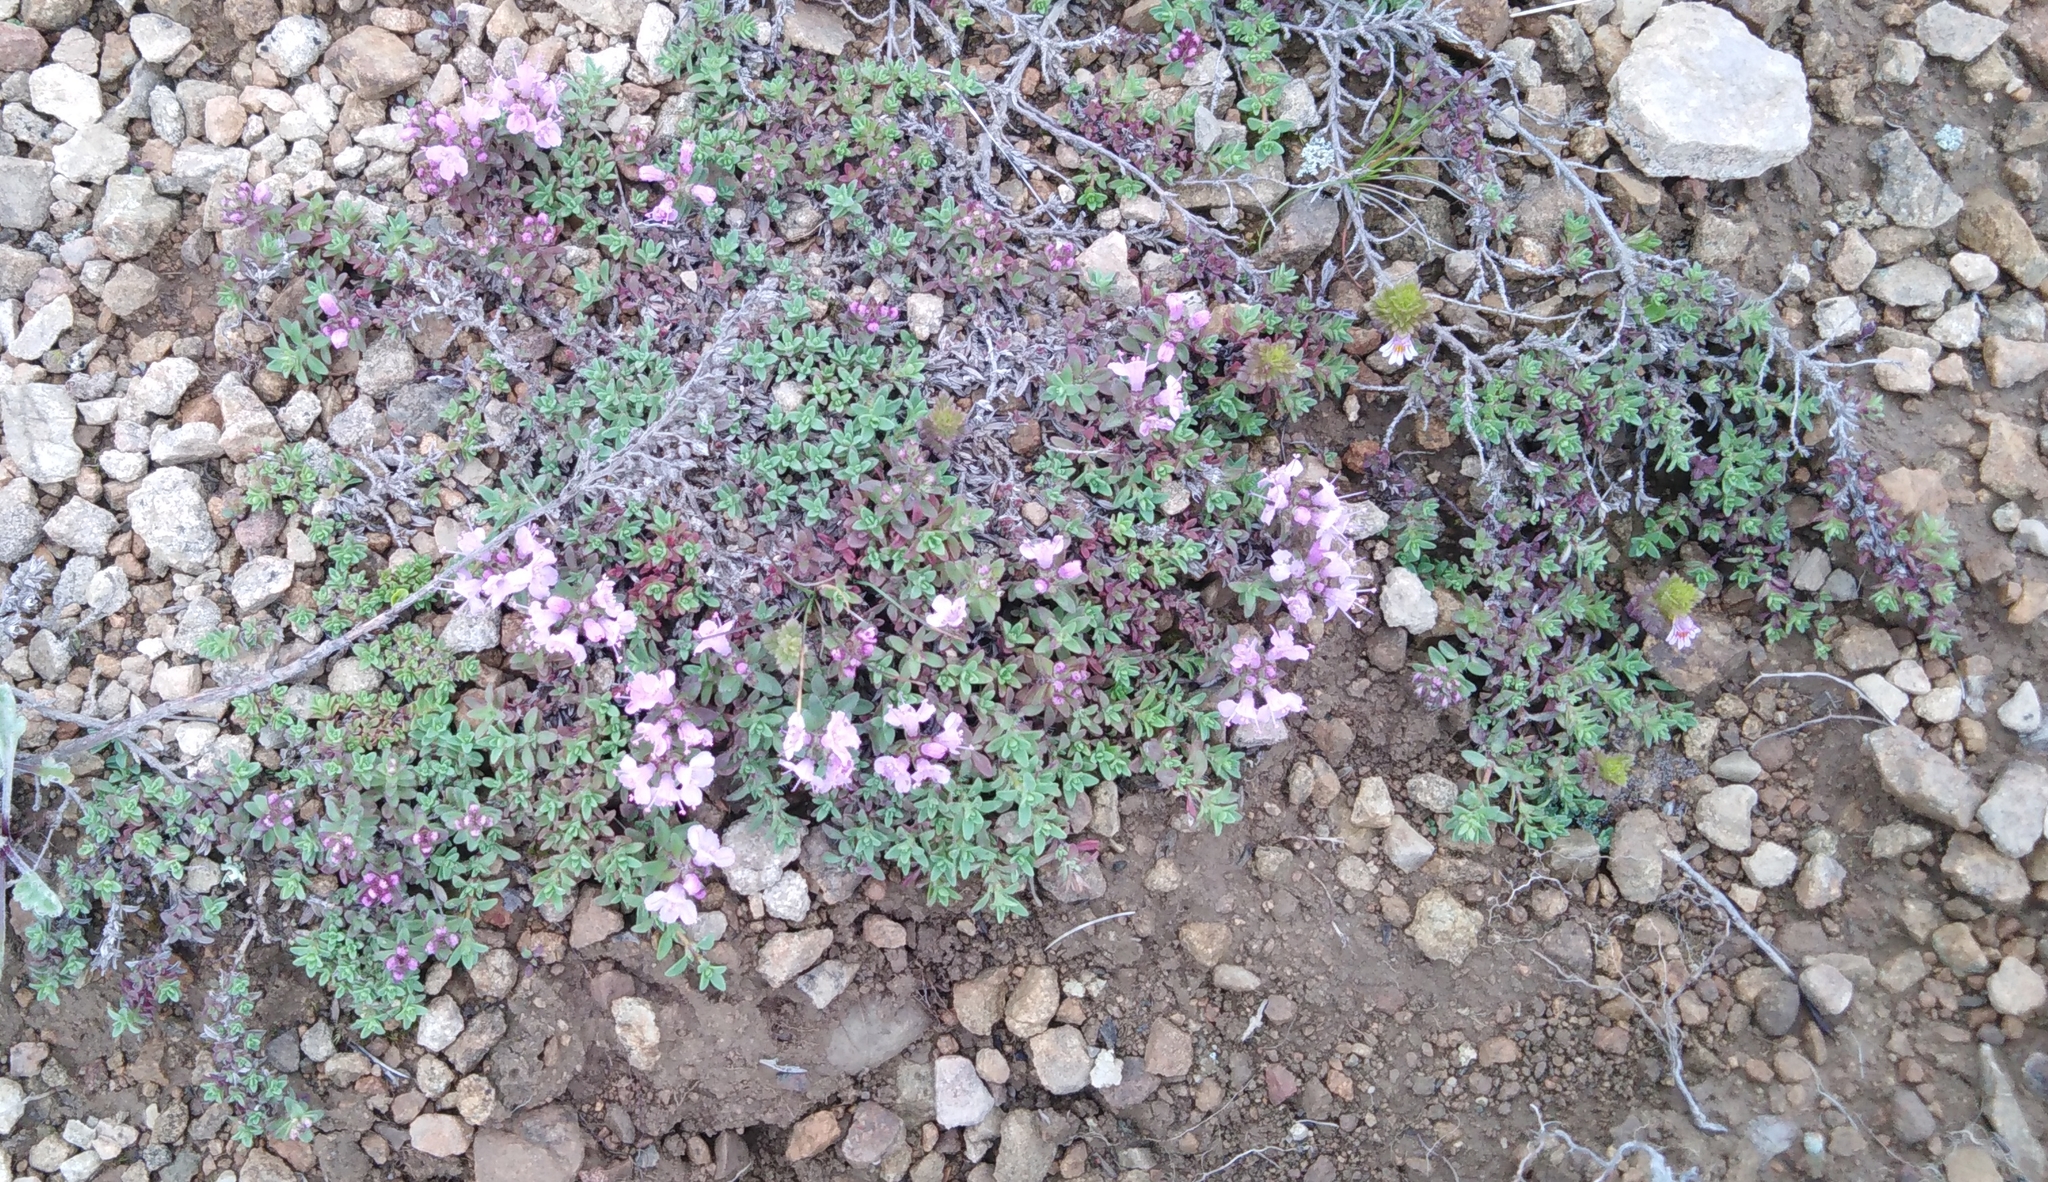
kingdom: Plantae
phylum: Tracheophyta
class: Magnoliopsida
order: Lamiales
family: Lamiaceae
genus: Thymus
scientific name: Thymus ternejicus
